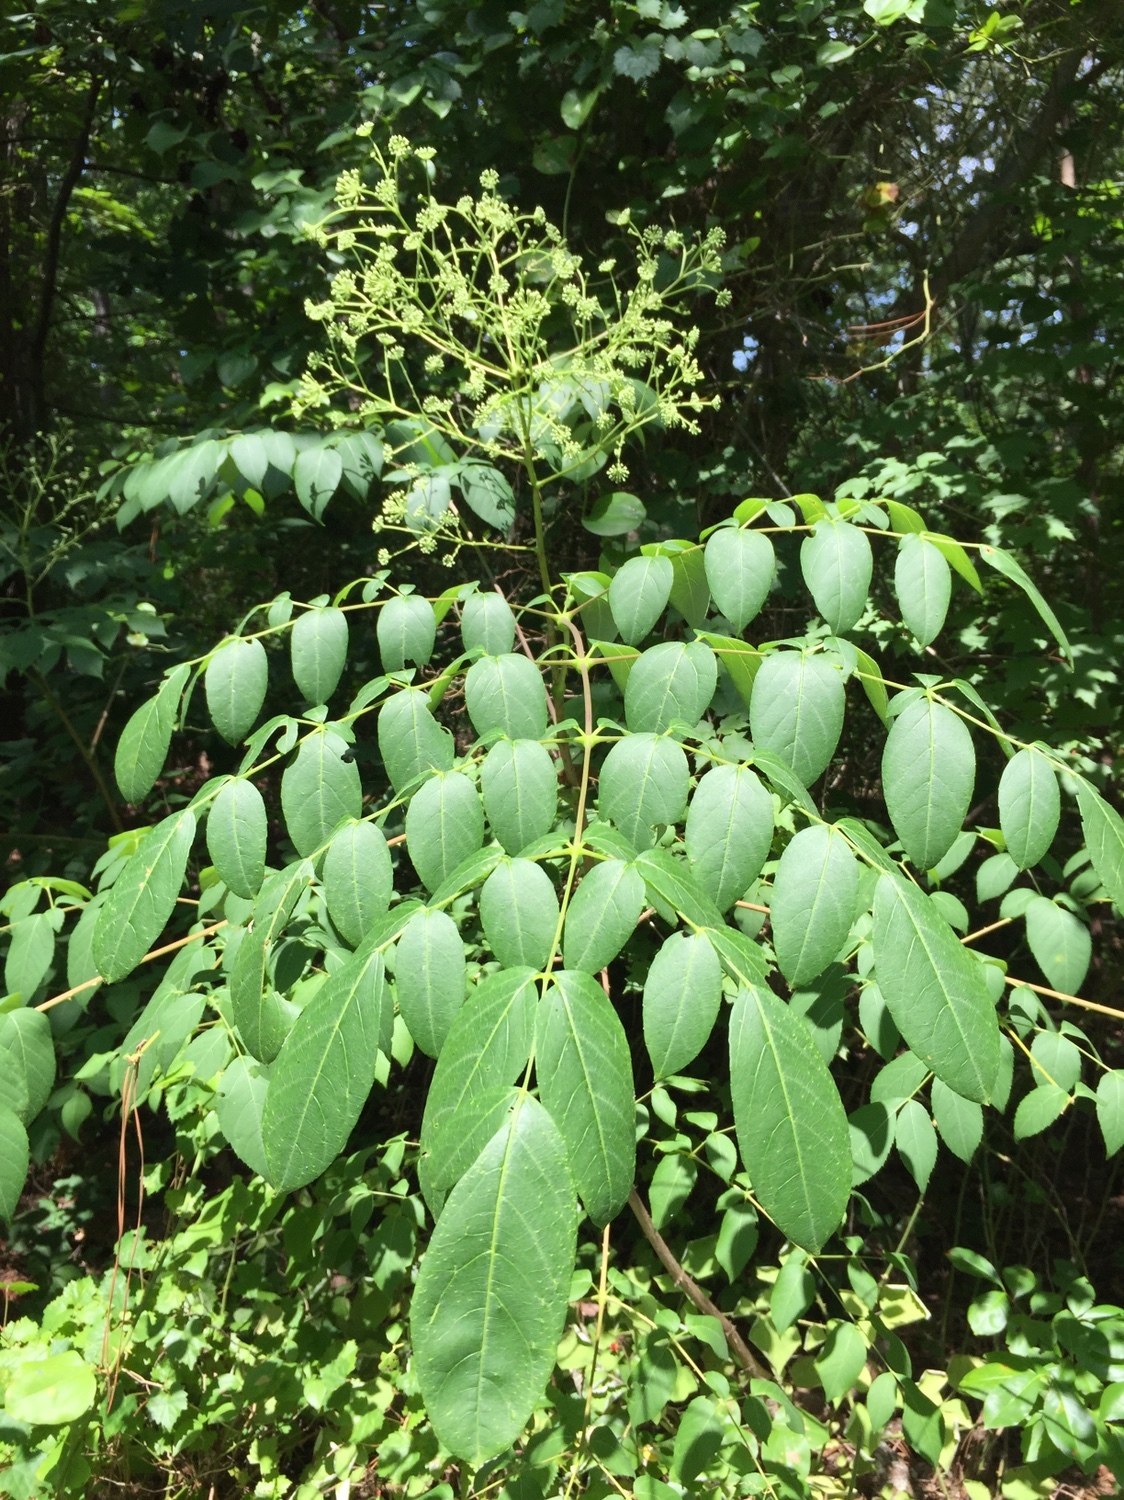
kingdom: Plantae
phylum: Tracheophyta
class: Magnoliopsida
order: Apiales
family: Araliaceae
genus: Aralia
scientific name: Aralia spinosa
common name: Hercules'-club
